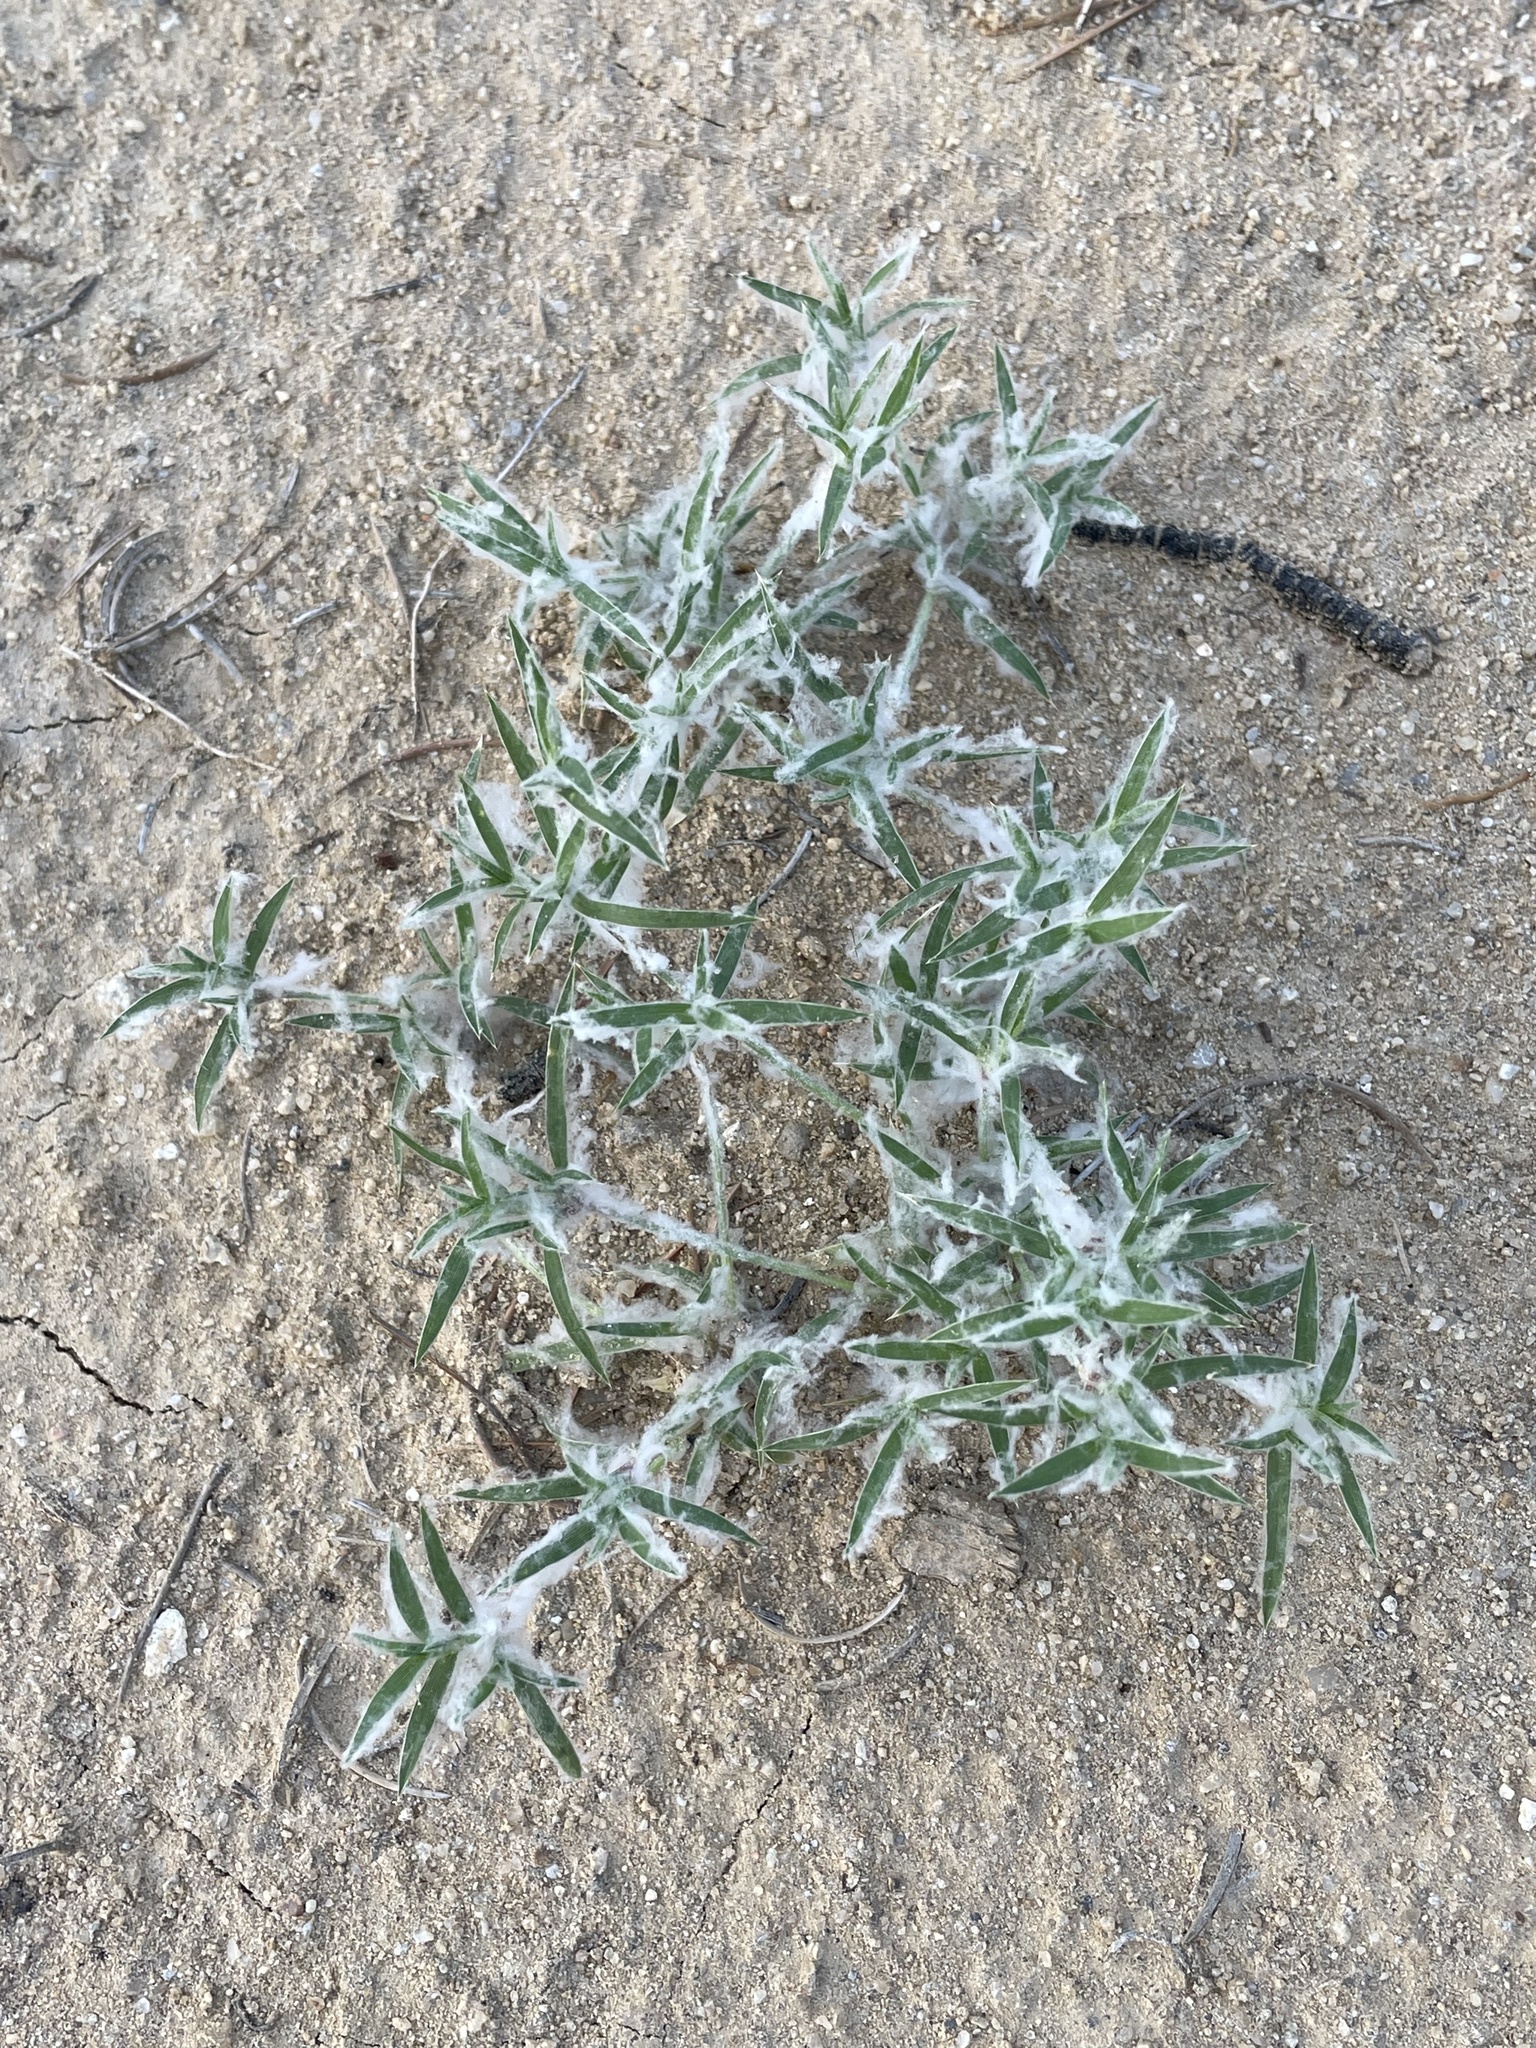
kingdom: Plantae
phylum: Tracheophyta
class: Liliopsida
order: Poales
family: Poaceae
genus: Munroa
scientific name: Munroa squarrosa
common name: False buffalo grass
